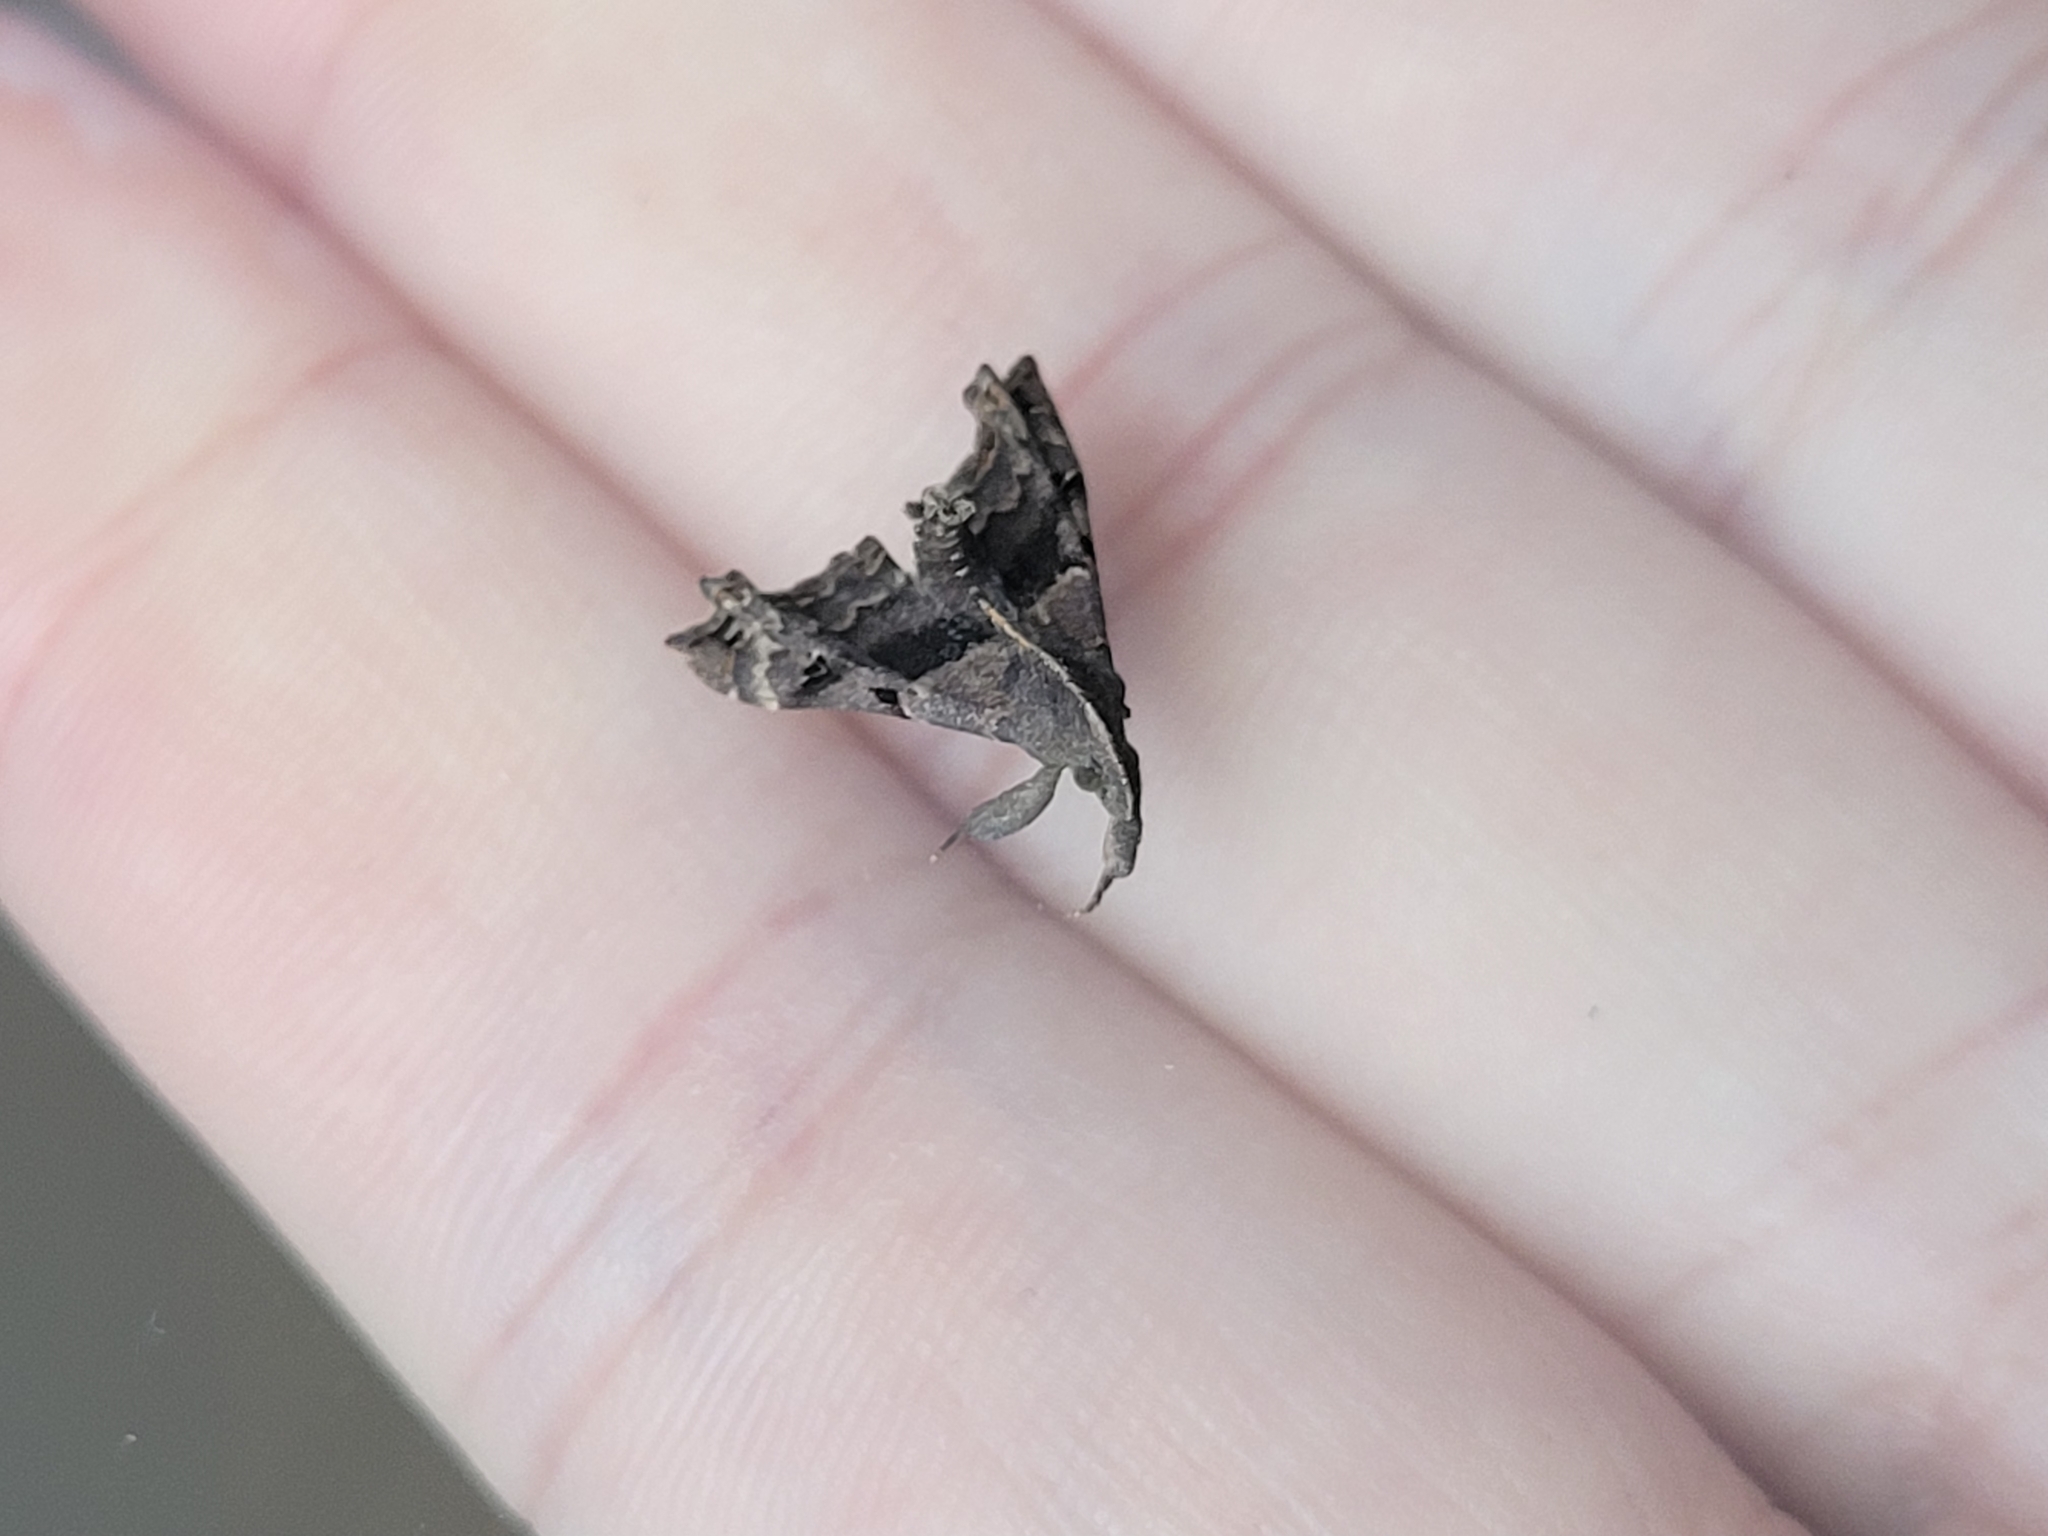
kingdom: Animalia
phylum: Arthropoda
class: Insecta
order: Lepidoptera
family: Erebidae
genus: Palthis
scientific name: Palthis asopialis
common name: Faint-spotted palthis moth
